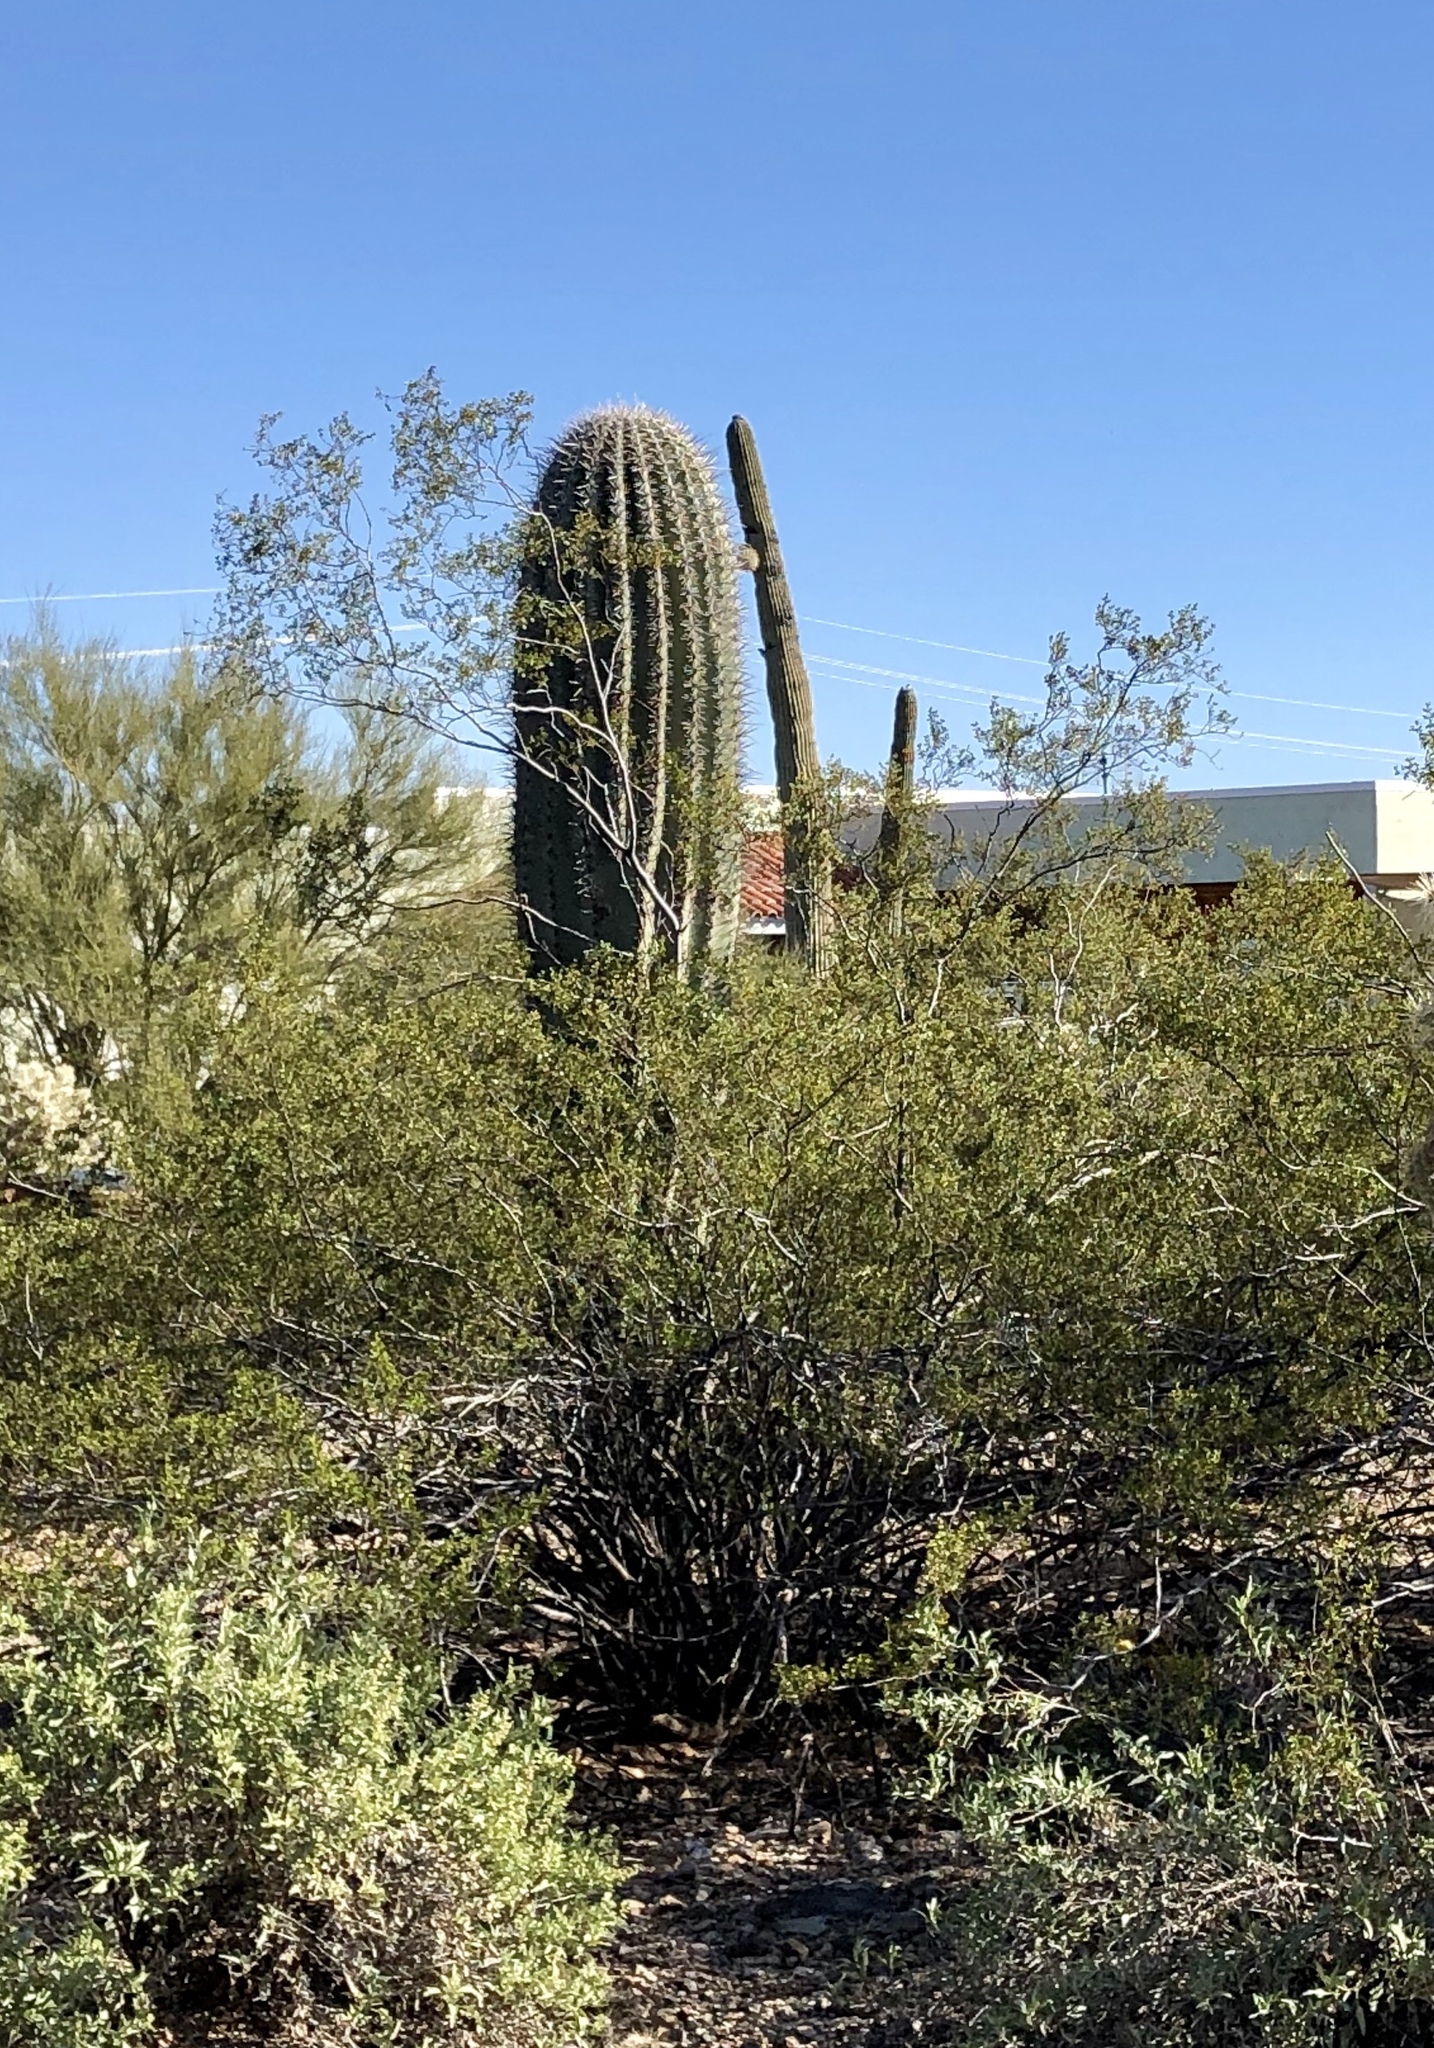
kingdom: Plantae
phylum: Tracheophyta
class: Magnoliopsida
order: Caryophyllales
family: Cactaceae
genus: Carnegiea
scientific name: Carnegiea gigantea
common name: Saguaro
